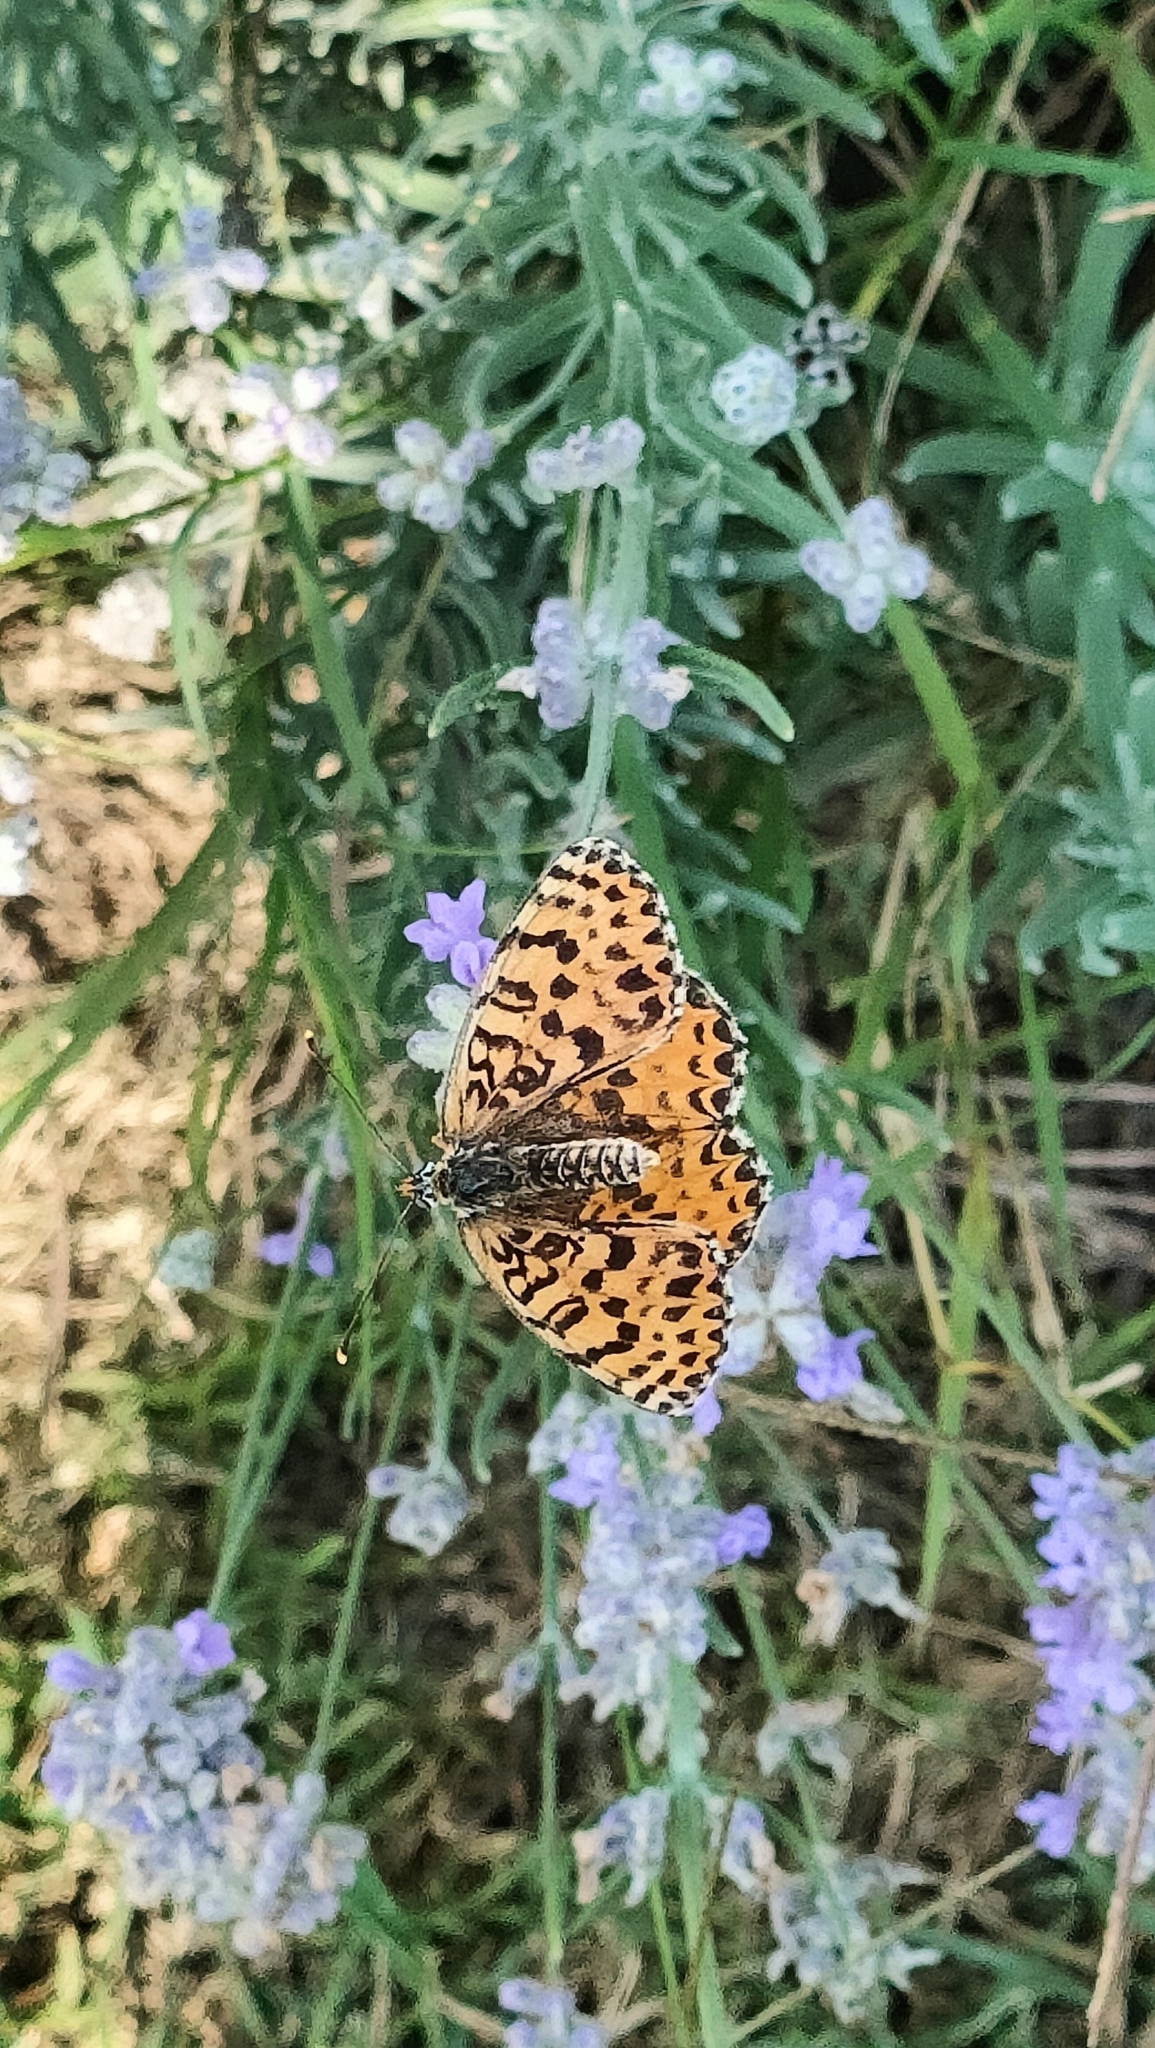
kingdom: Animalia
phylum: Arthropoda
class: Insecta
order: Lepidoptera
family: Nymphalidae
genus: Melitaea
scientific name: Melitaea didyma
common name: Spotted fritillary
